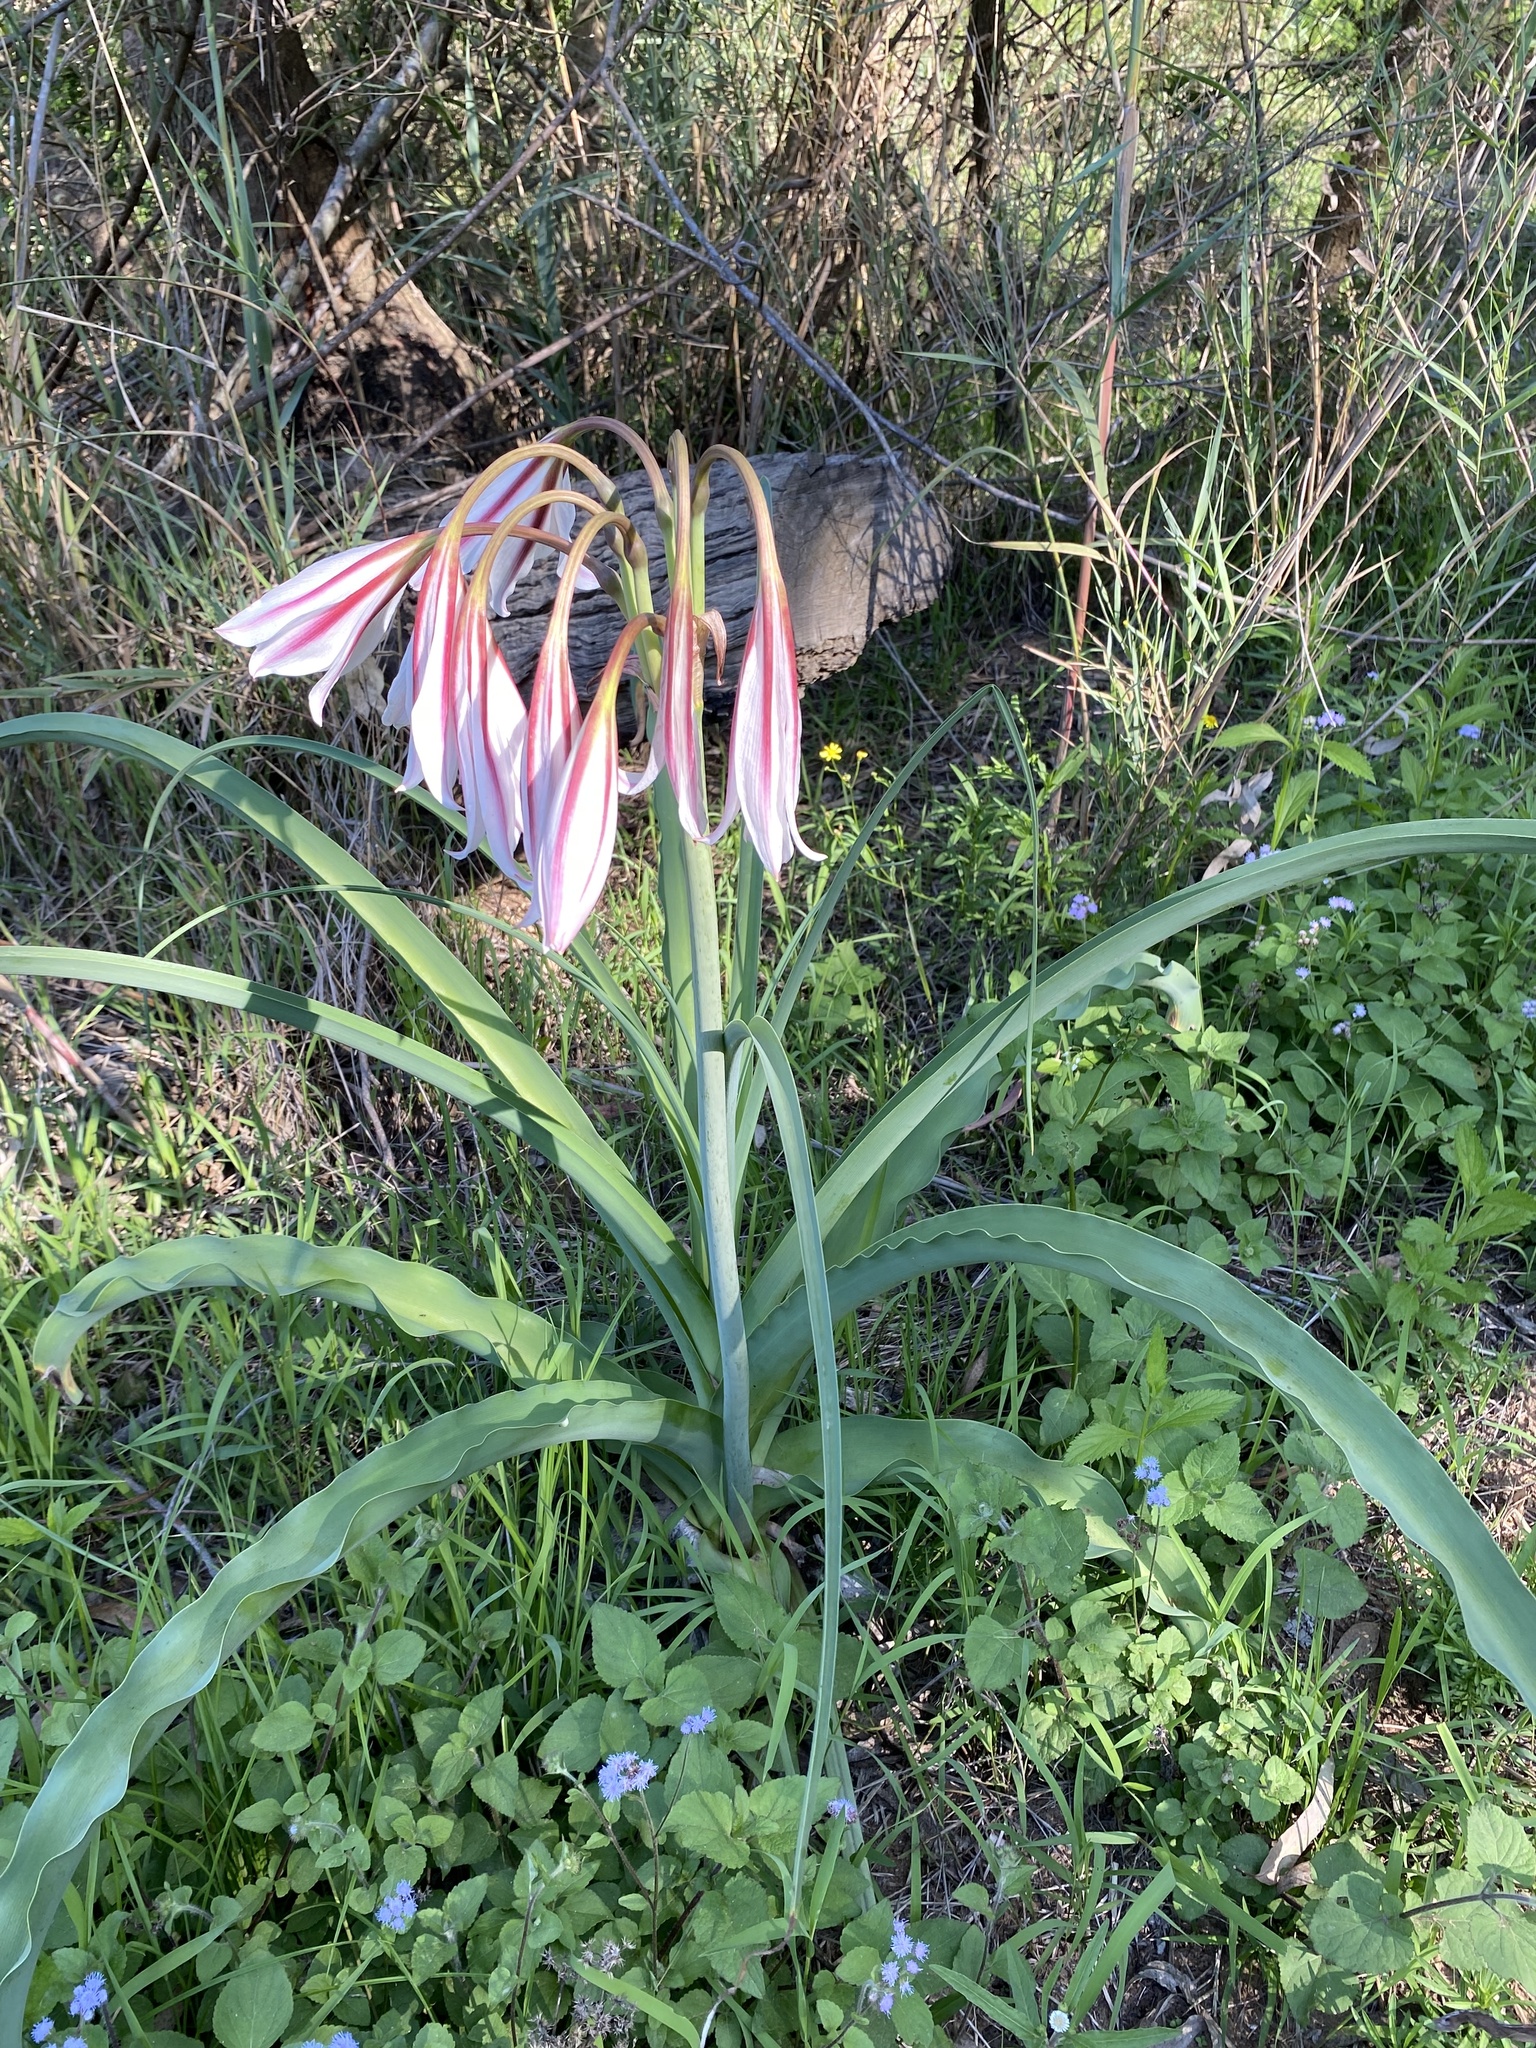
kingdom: Plantae
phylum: Tracheophyta
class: Liliopsida
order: Asparagales
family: Amaryllidaceae
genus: Crinum
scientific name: Crinum bulbispermum
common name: Hardy swamplily
